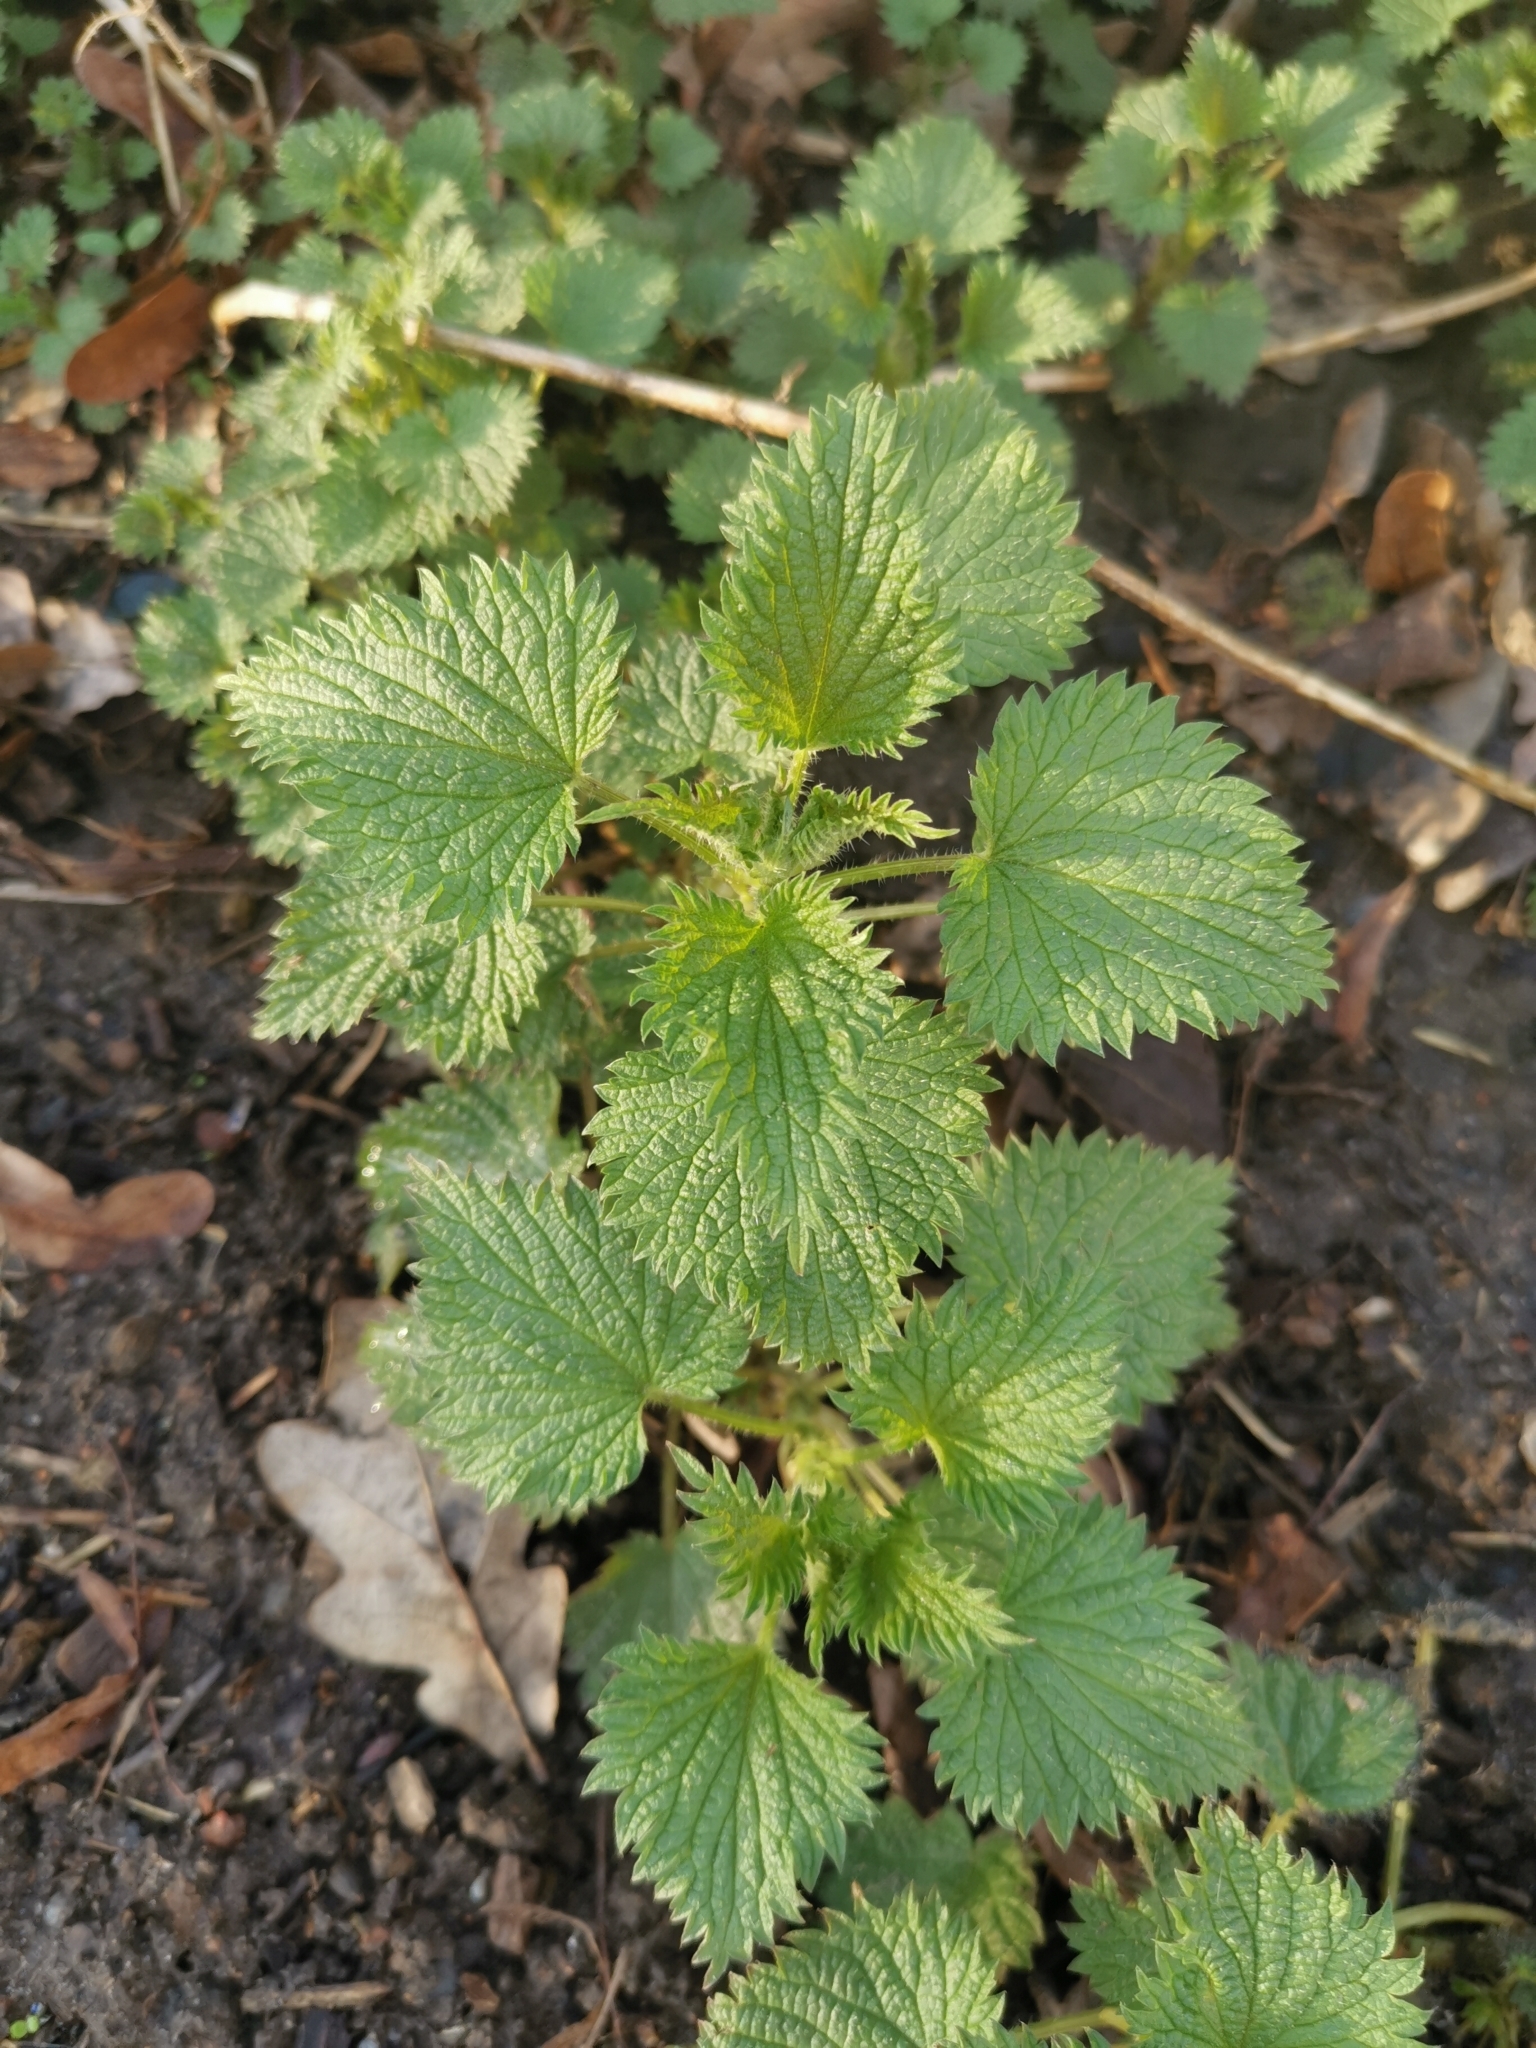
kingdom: Plantae
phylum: Tracheophyta
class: Magnoliopsida
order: Rosales
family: Urticaceae
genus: Urtica
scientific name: Urtica dioica
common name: Common nettle
